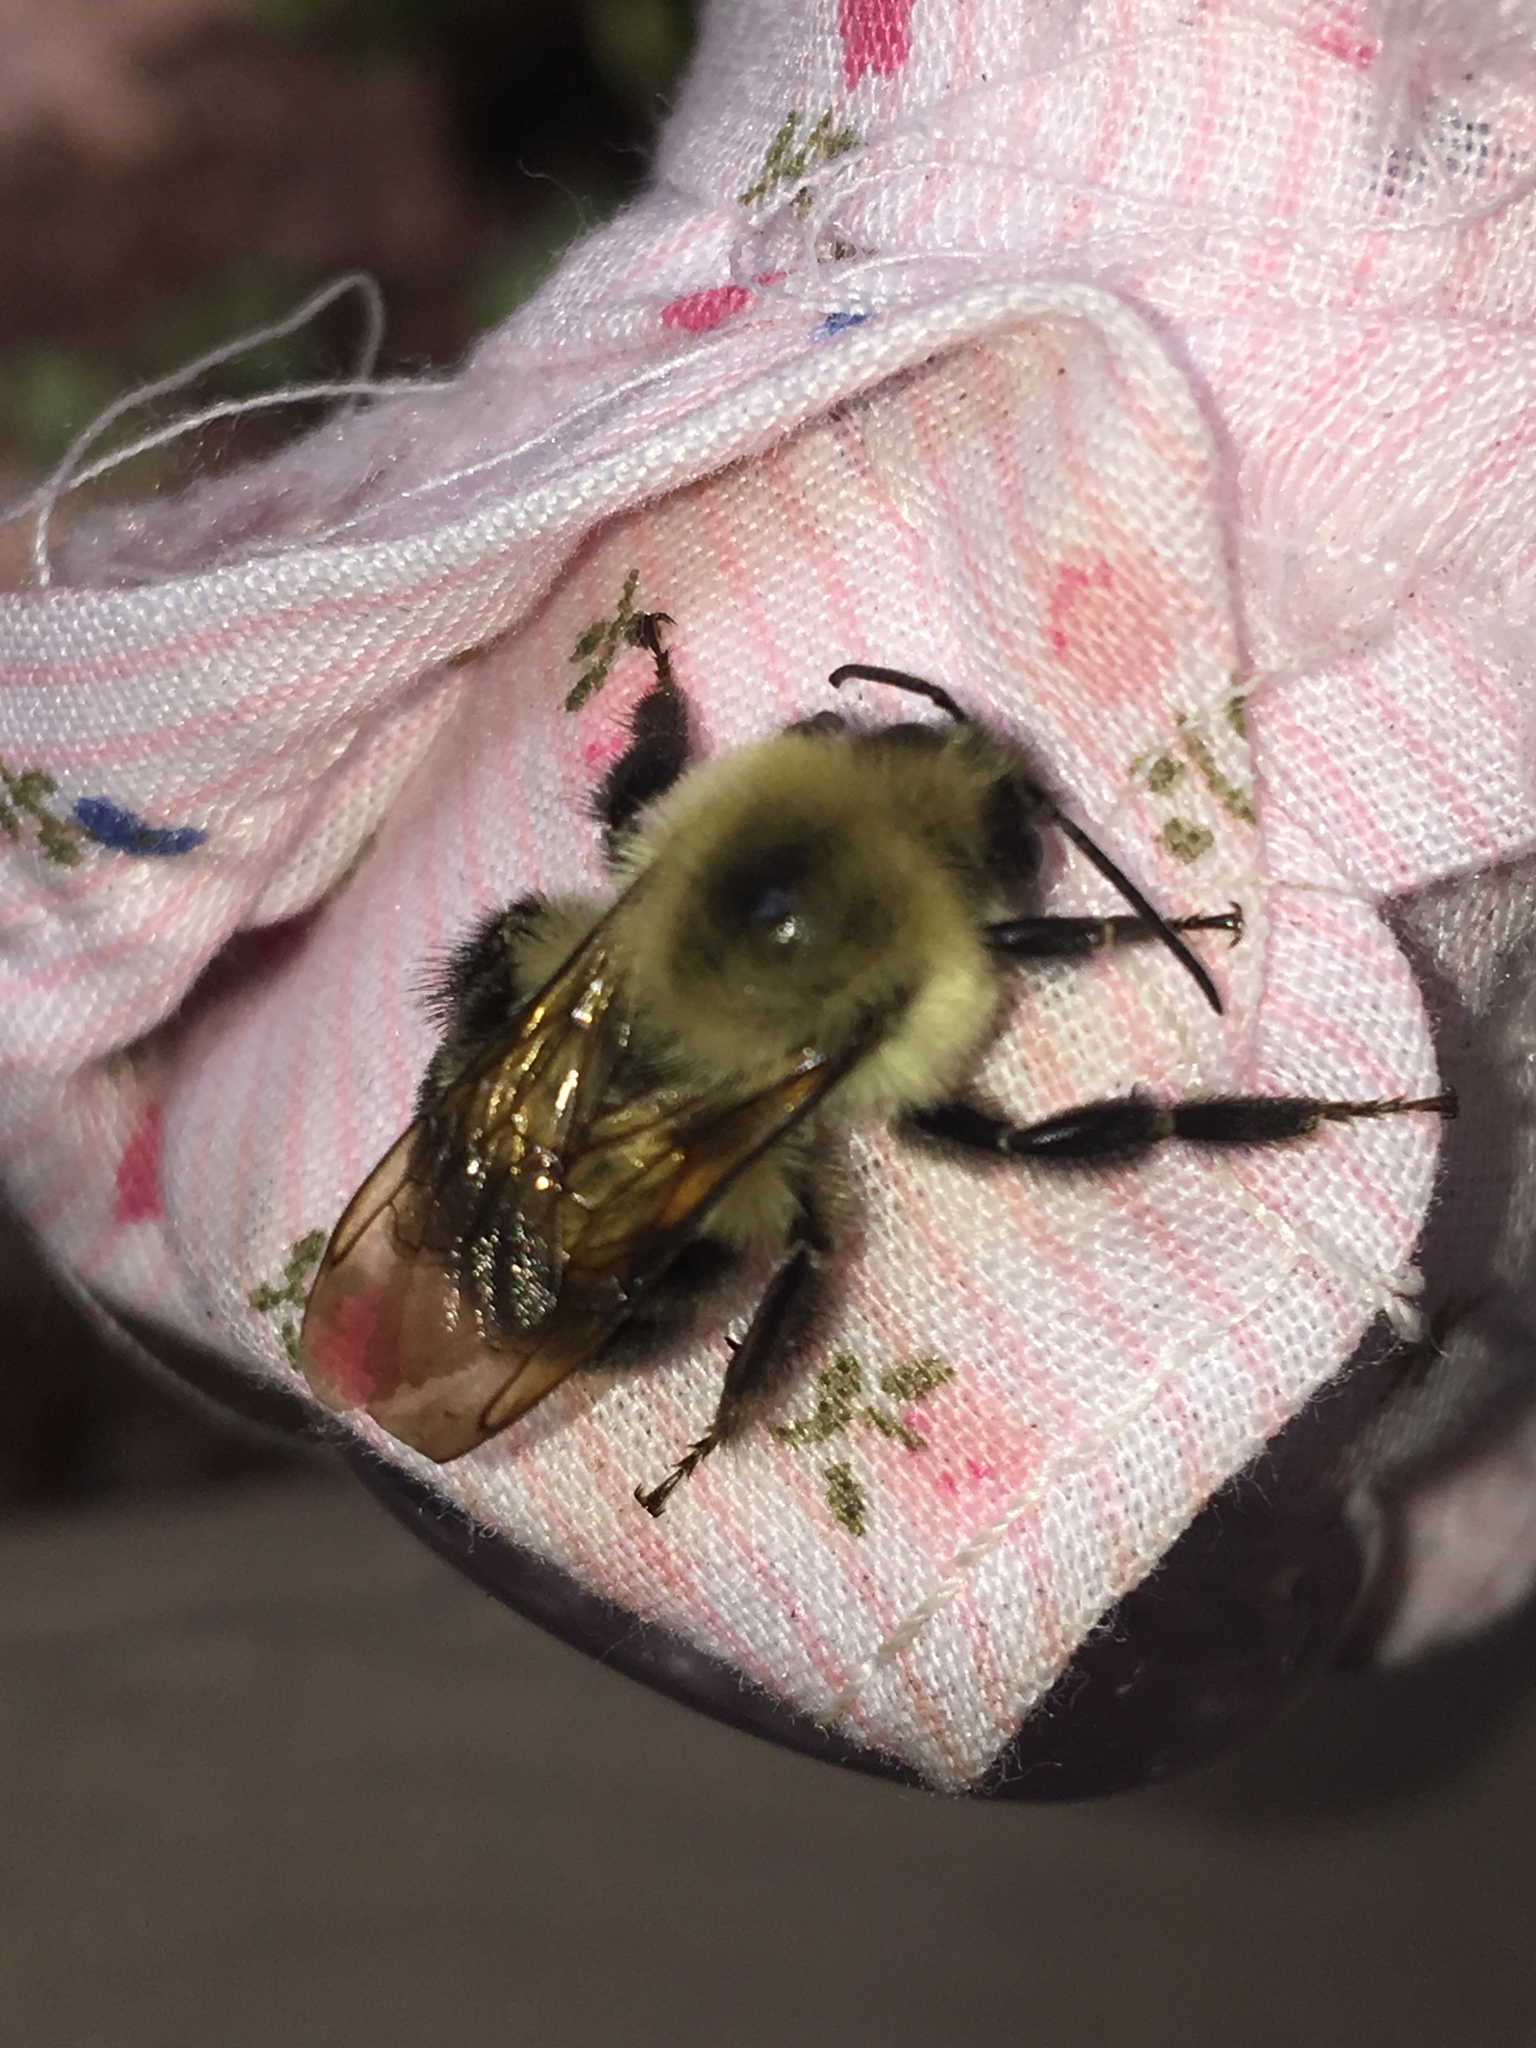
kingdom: Animalia
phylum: Arthropoda
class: Insecta
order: Hymenoptera
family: Apidae
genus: Bombus
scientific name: Bombus bimaculatus
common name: Two-spotted bumble bee
